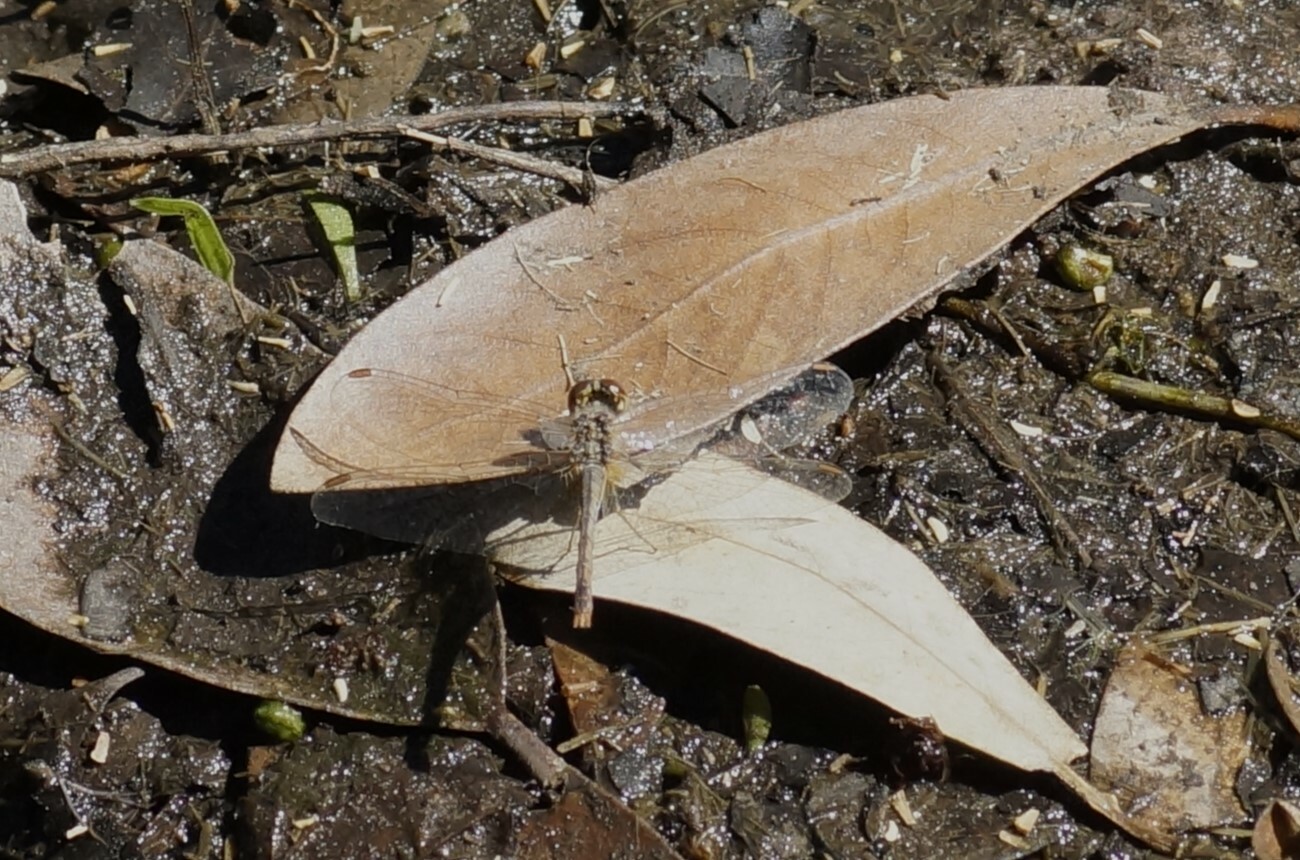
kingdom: Animalia
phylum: Arthropoda
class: Insecta
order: Odonata
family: Libellulidae
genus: Diplacodes
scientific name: Diplacodes bipunctata
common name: Red percher dragonfly
